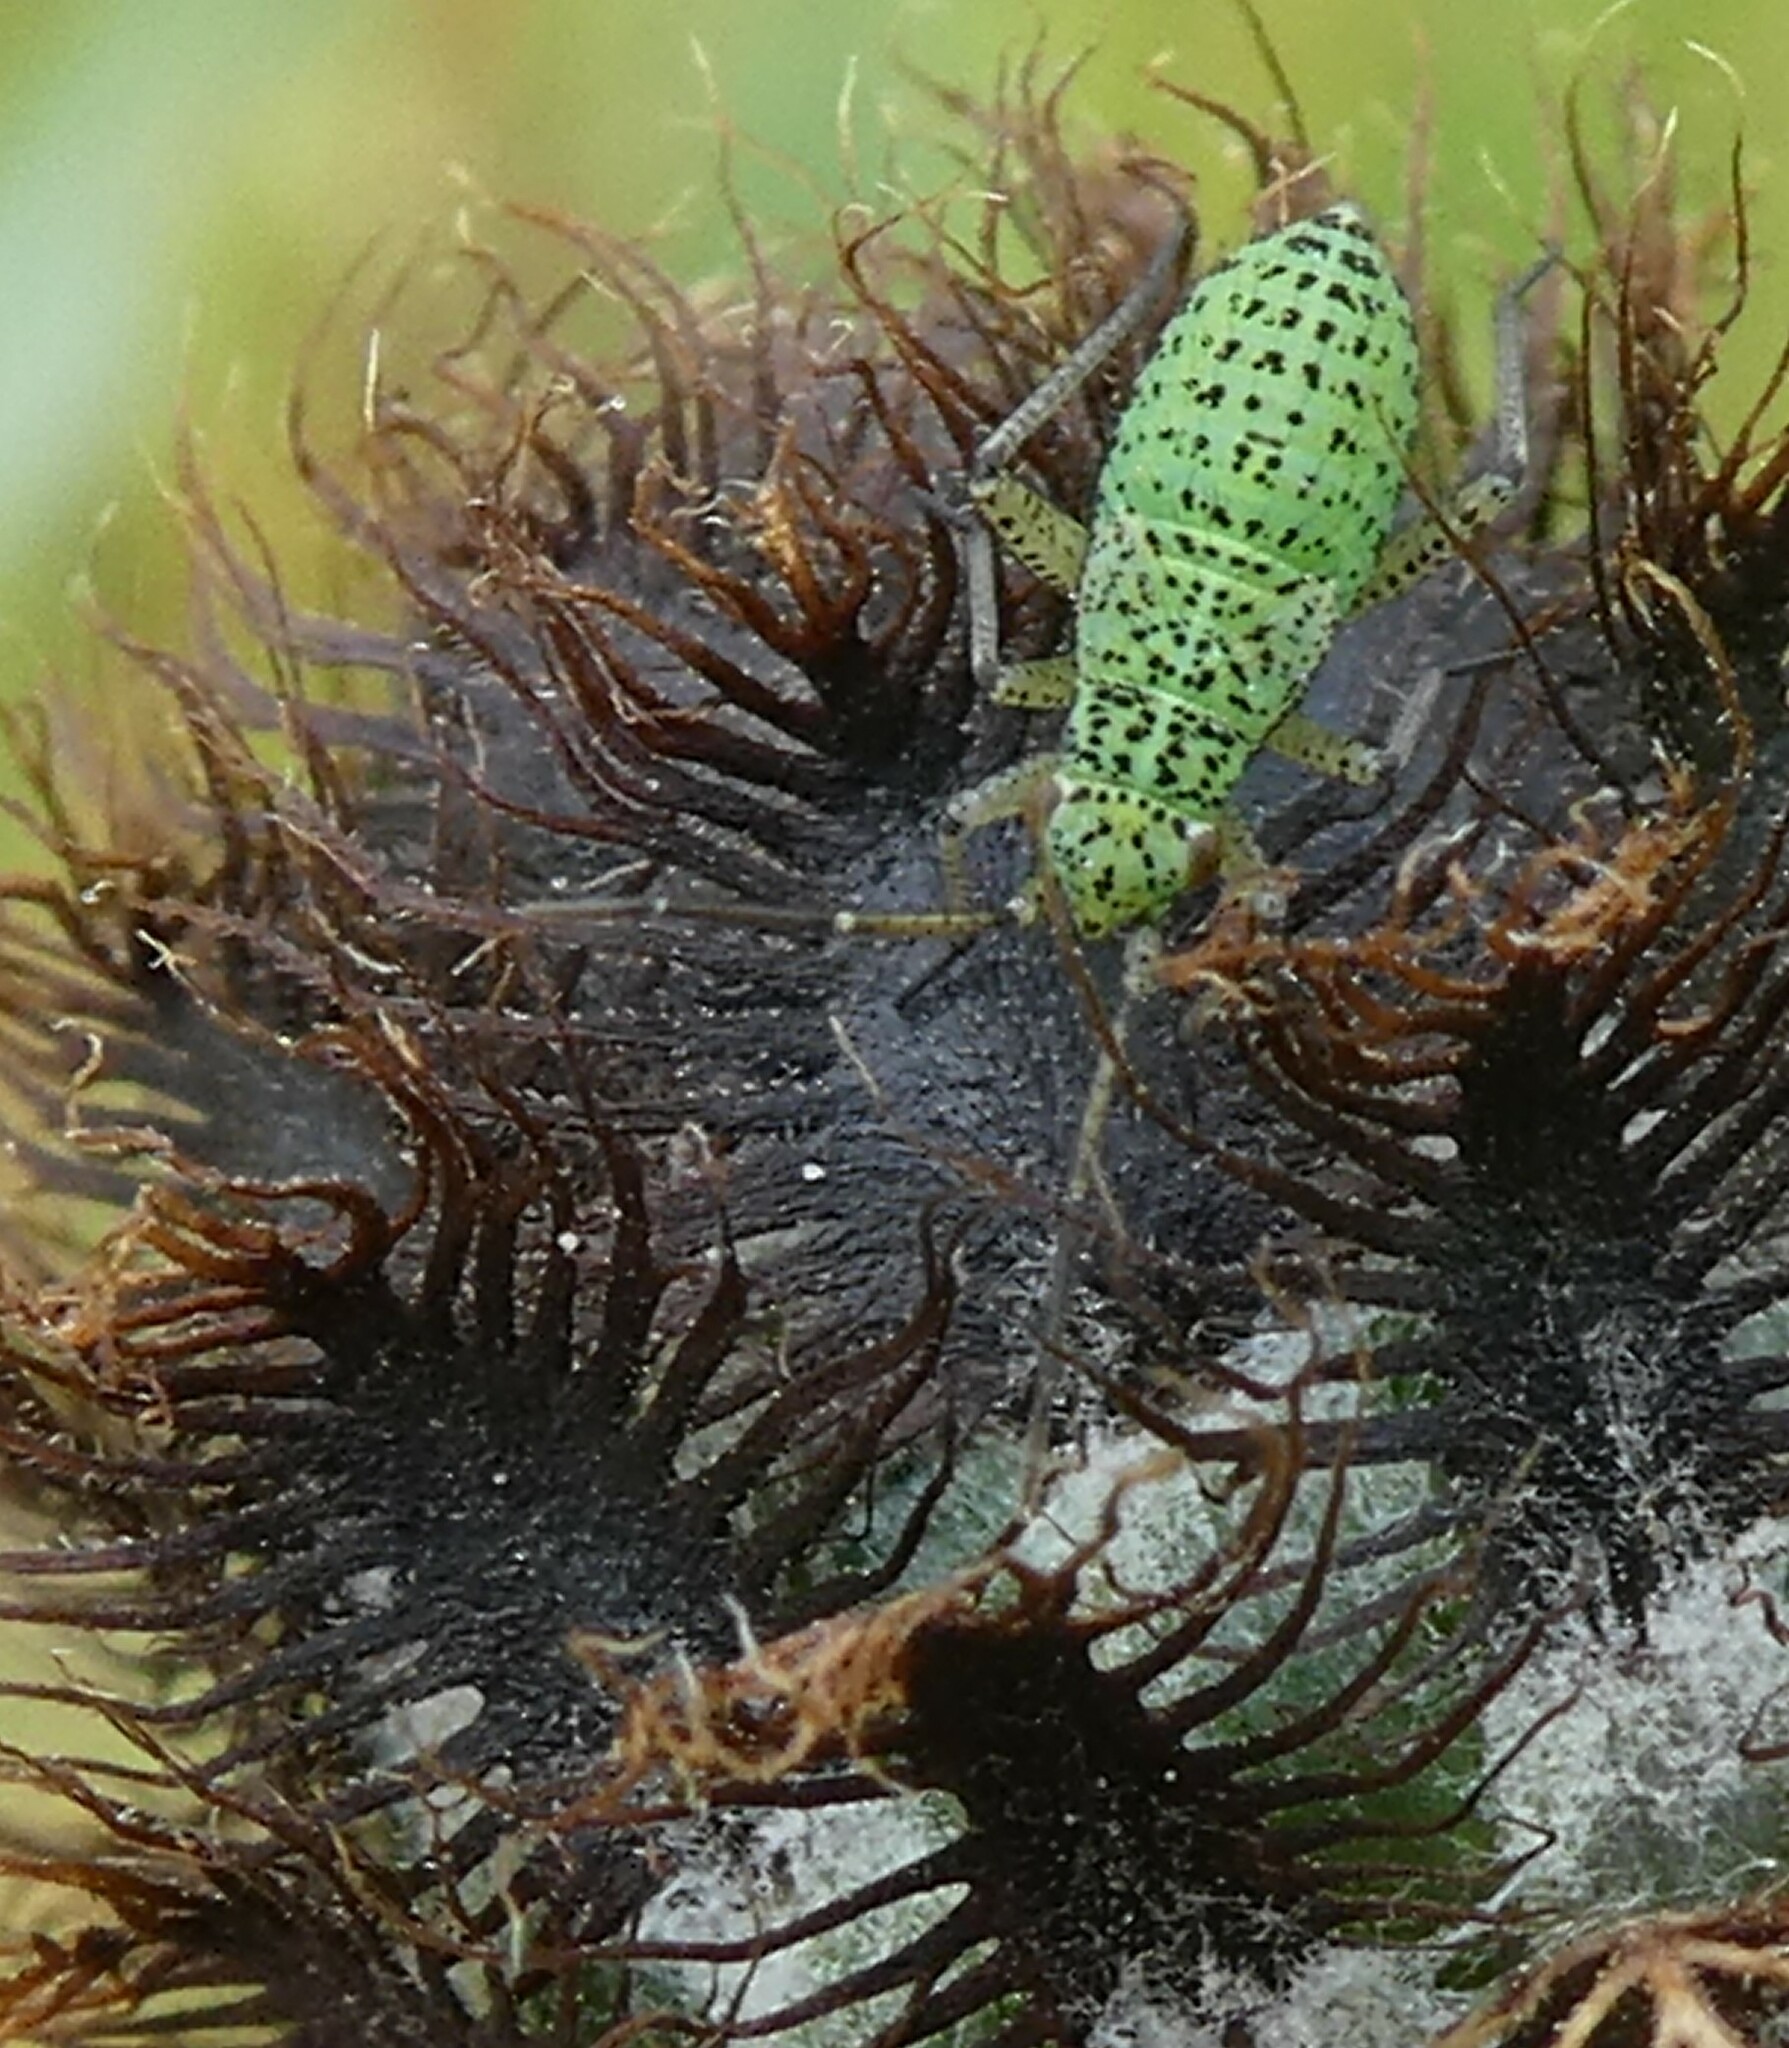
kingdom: Animalia
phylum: Arthropoda
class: Insecta
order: Hemiptera
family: Miridae
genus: Oncotylus
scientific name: Oncotylus viridiflavus
